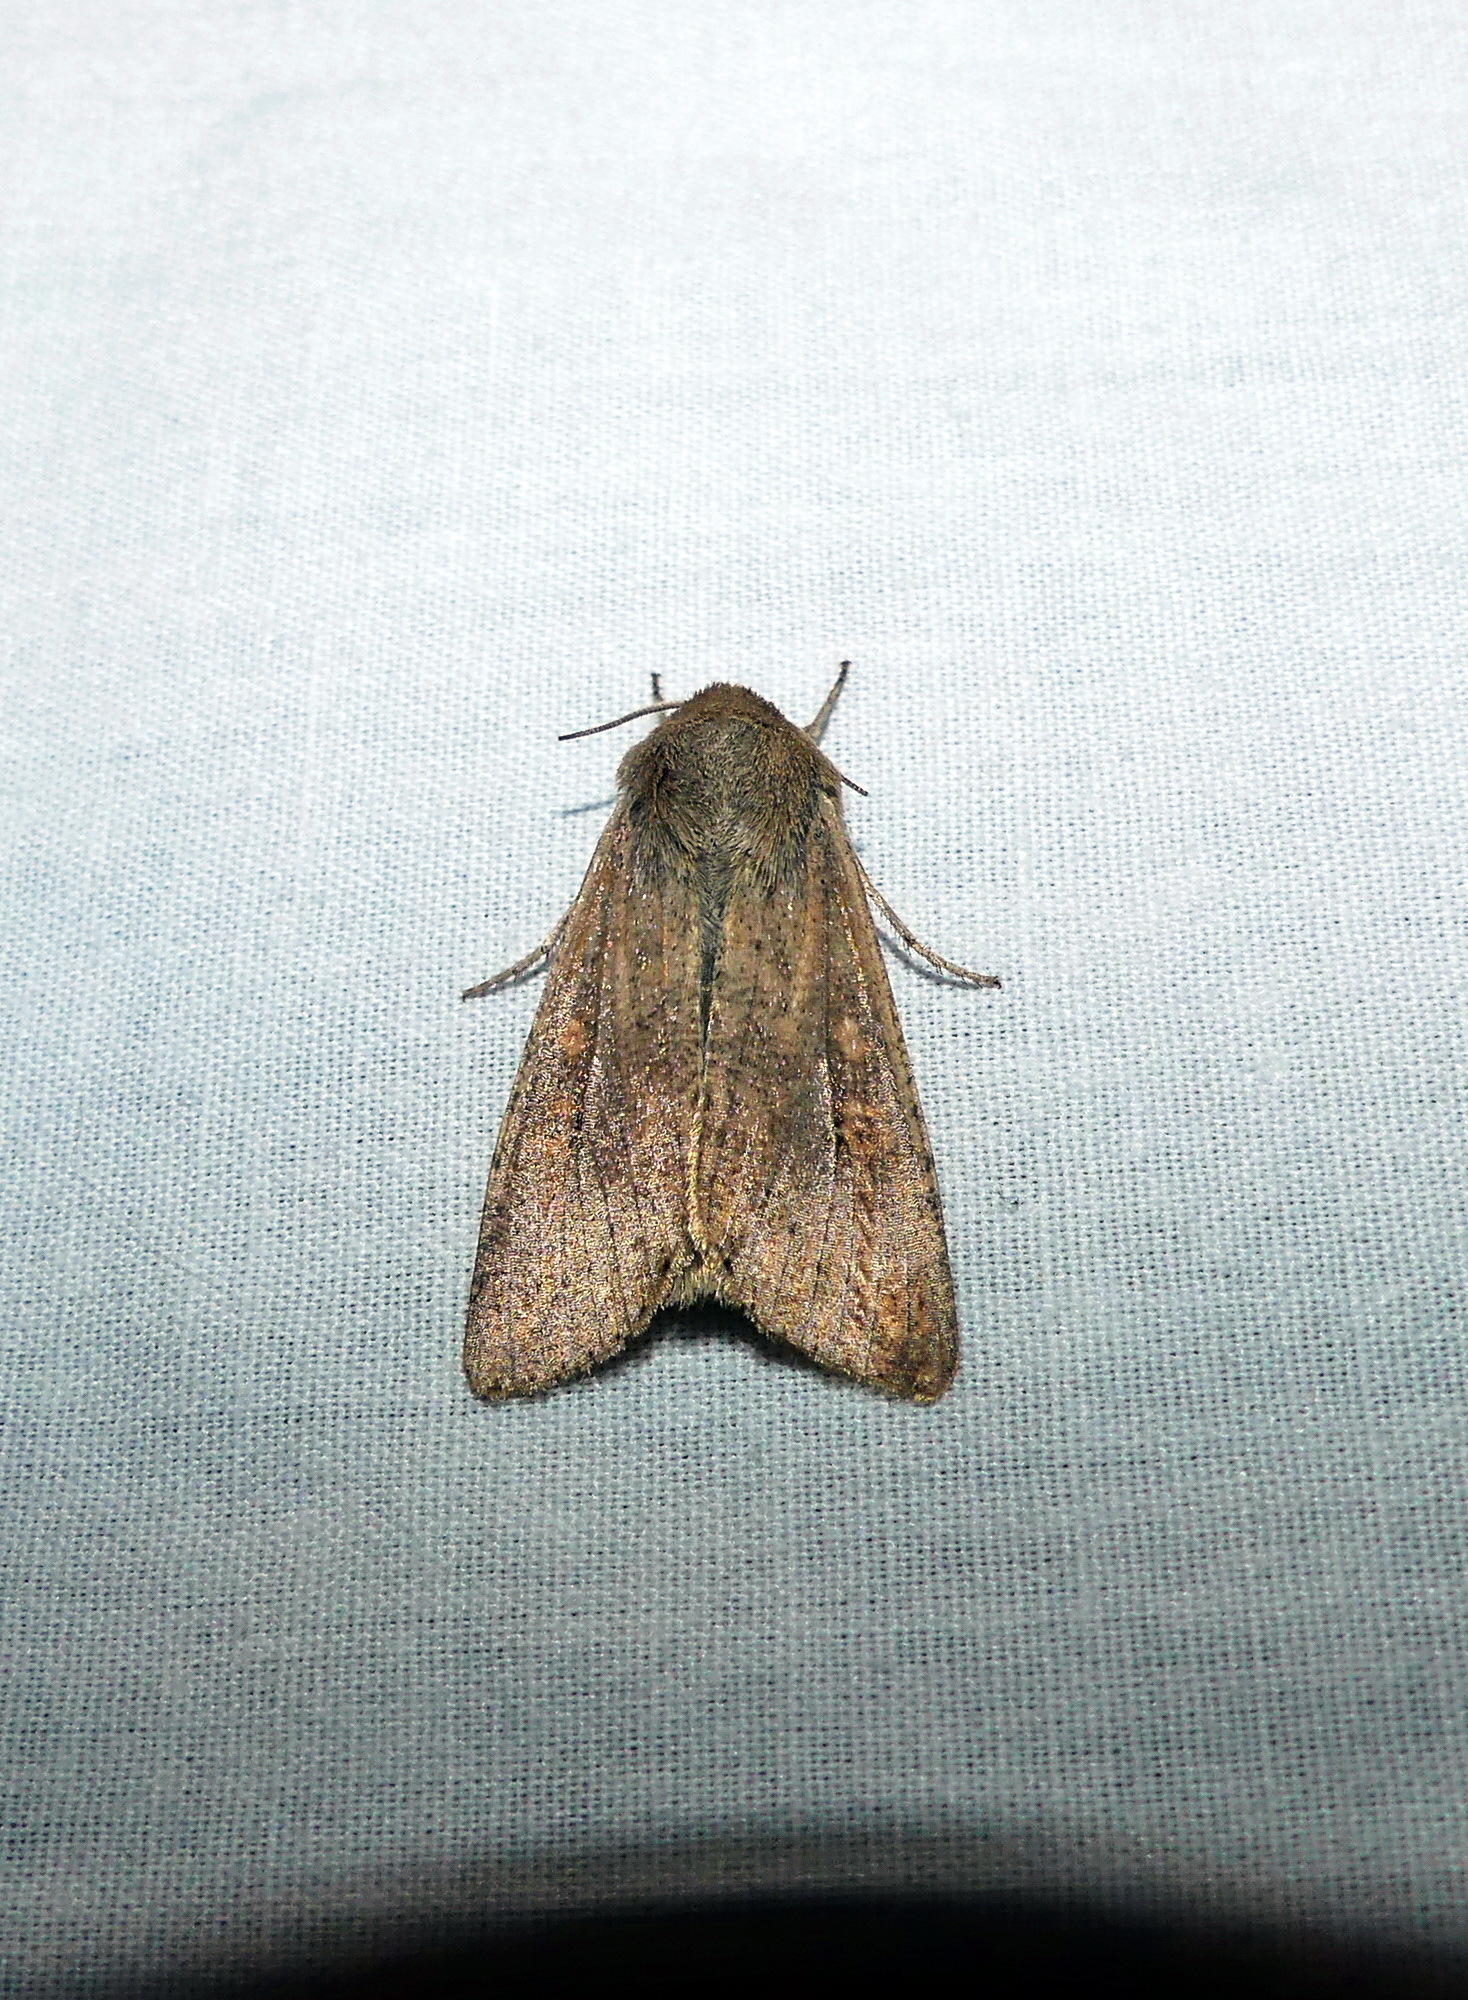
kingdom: Animalia
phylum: Arthropoda
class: Insecta
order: Lepidoptera
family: Noctuidae
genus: Mythimna
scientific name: Mythimna unipuncta
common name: White-speck
